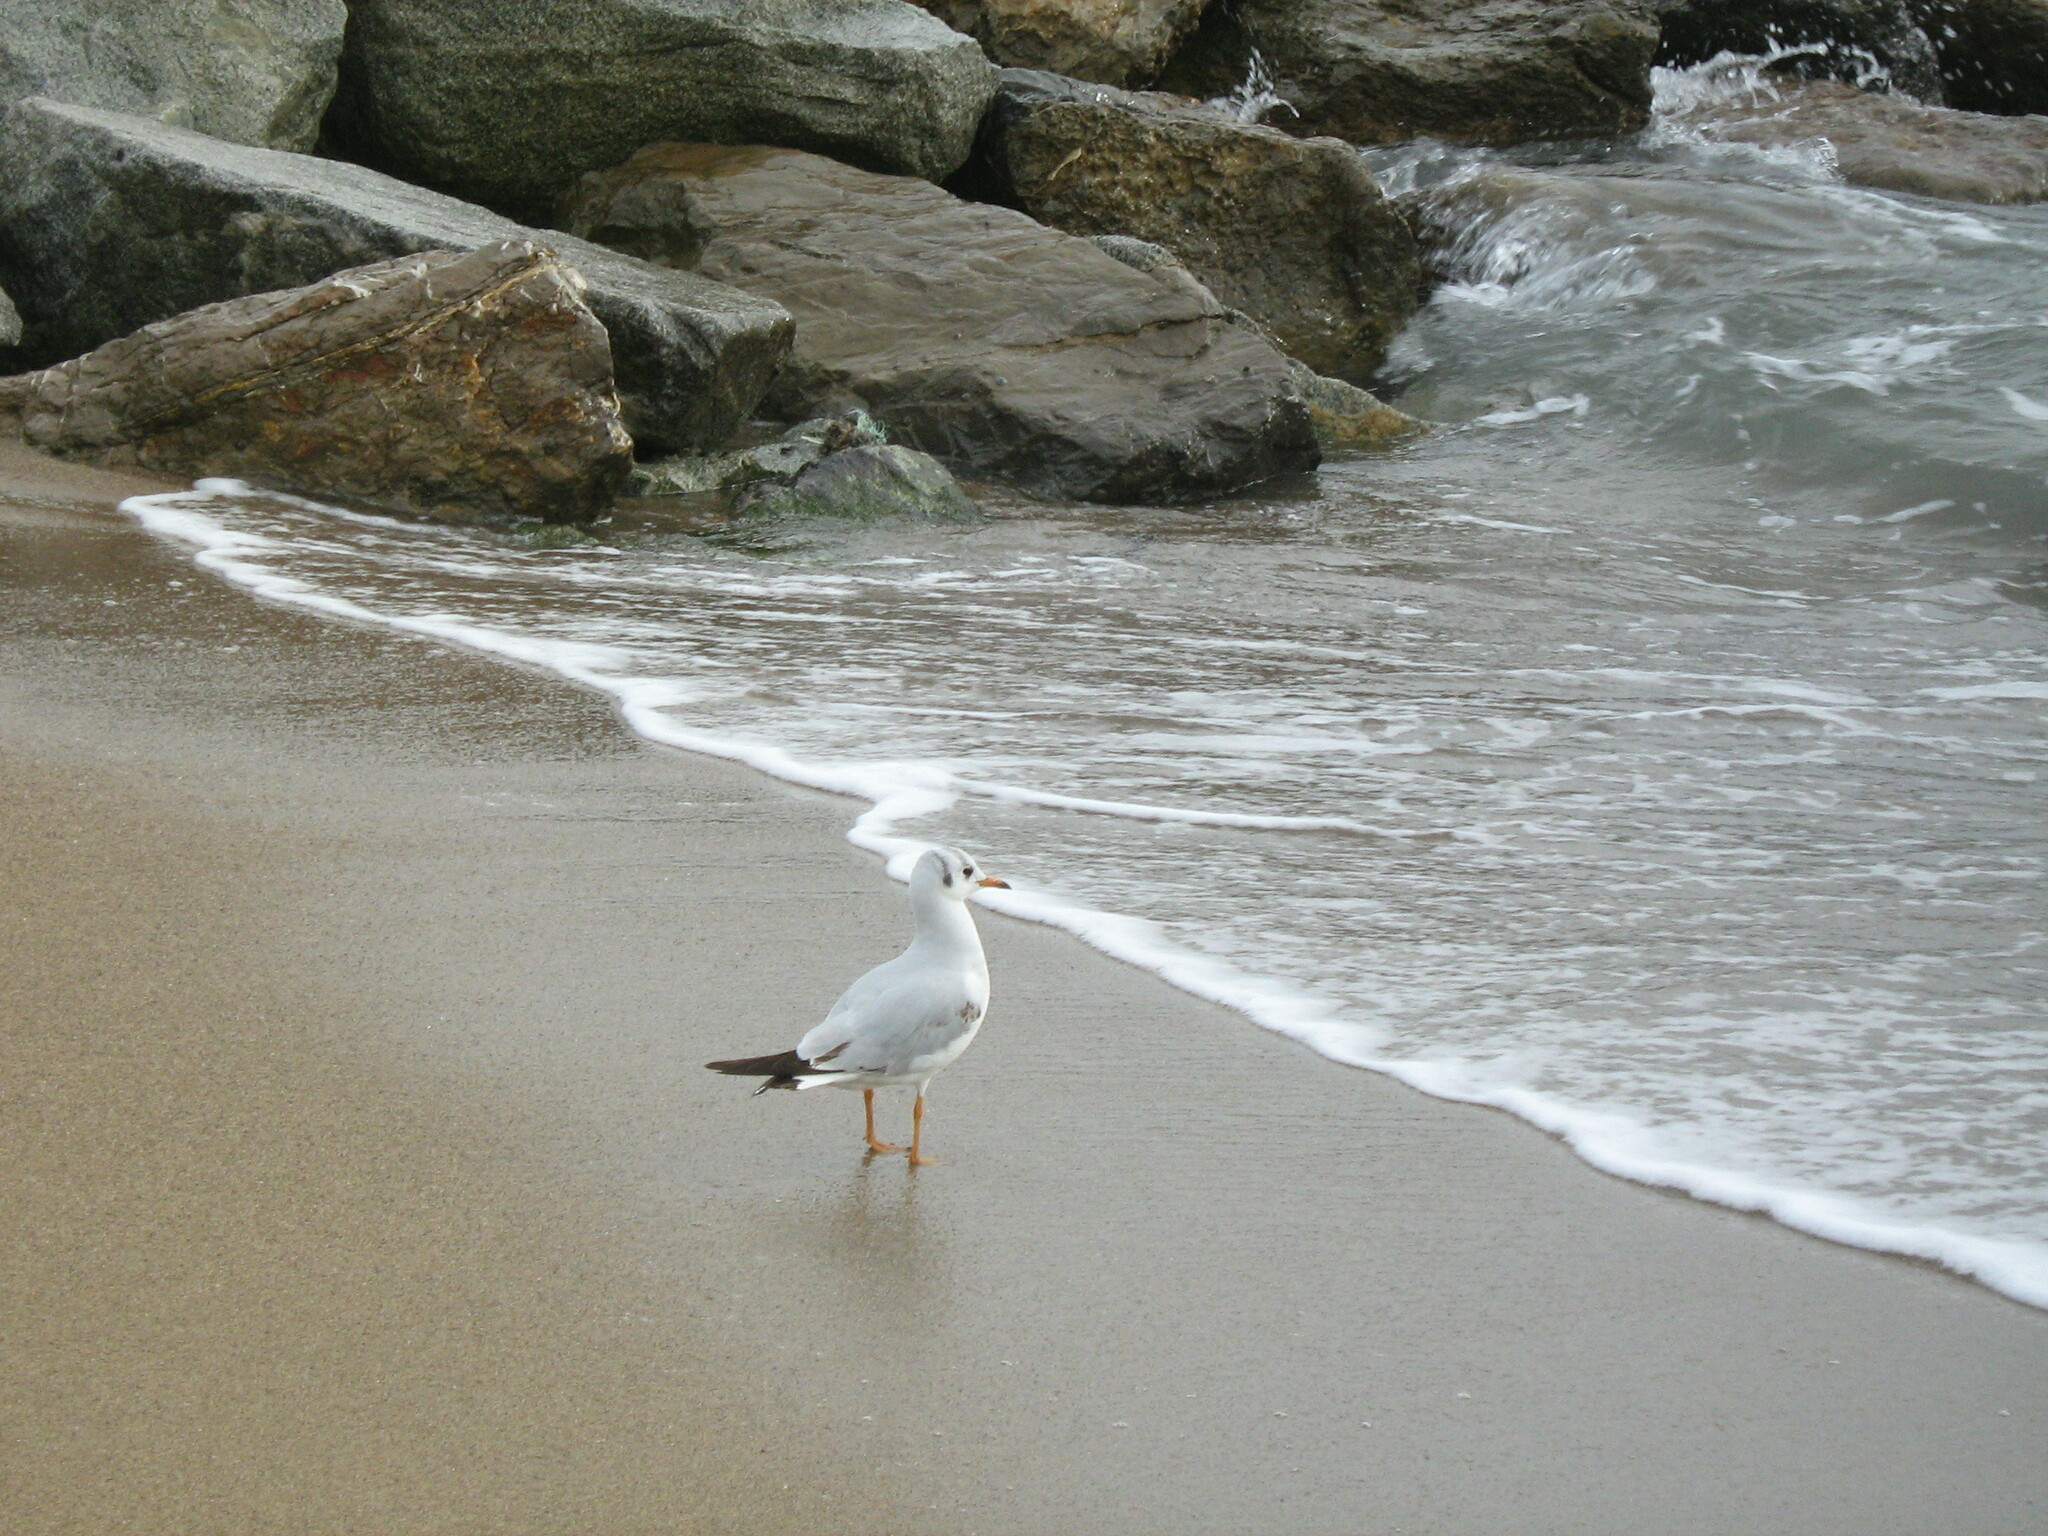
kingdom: Animalia
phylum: Chordata
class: Aves
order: Charadriiformes
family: Laridae
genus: Chroicocephalus
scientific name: Chroicocephalus ridibundus
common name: Black-headed gull
